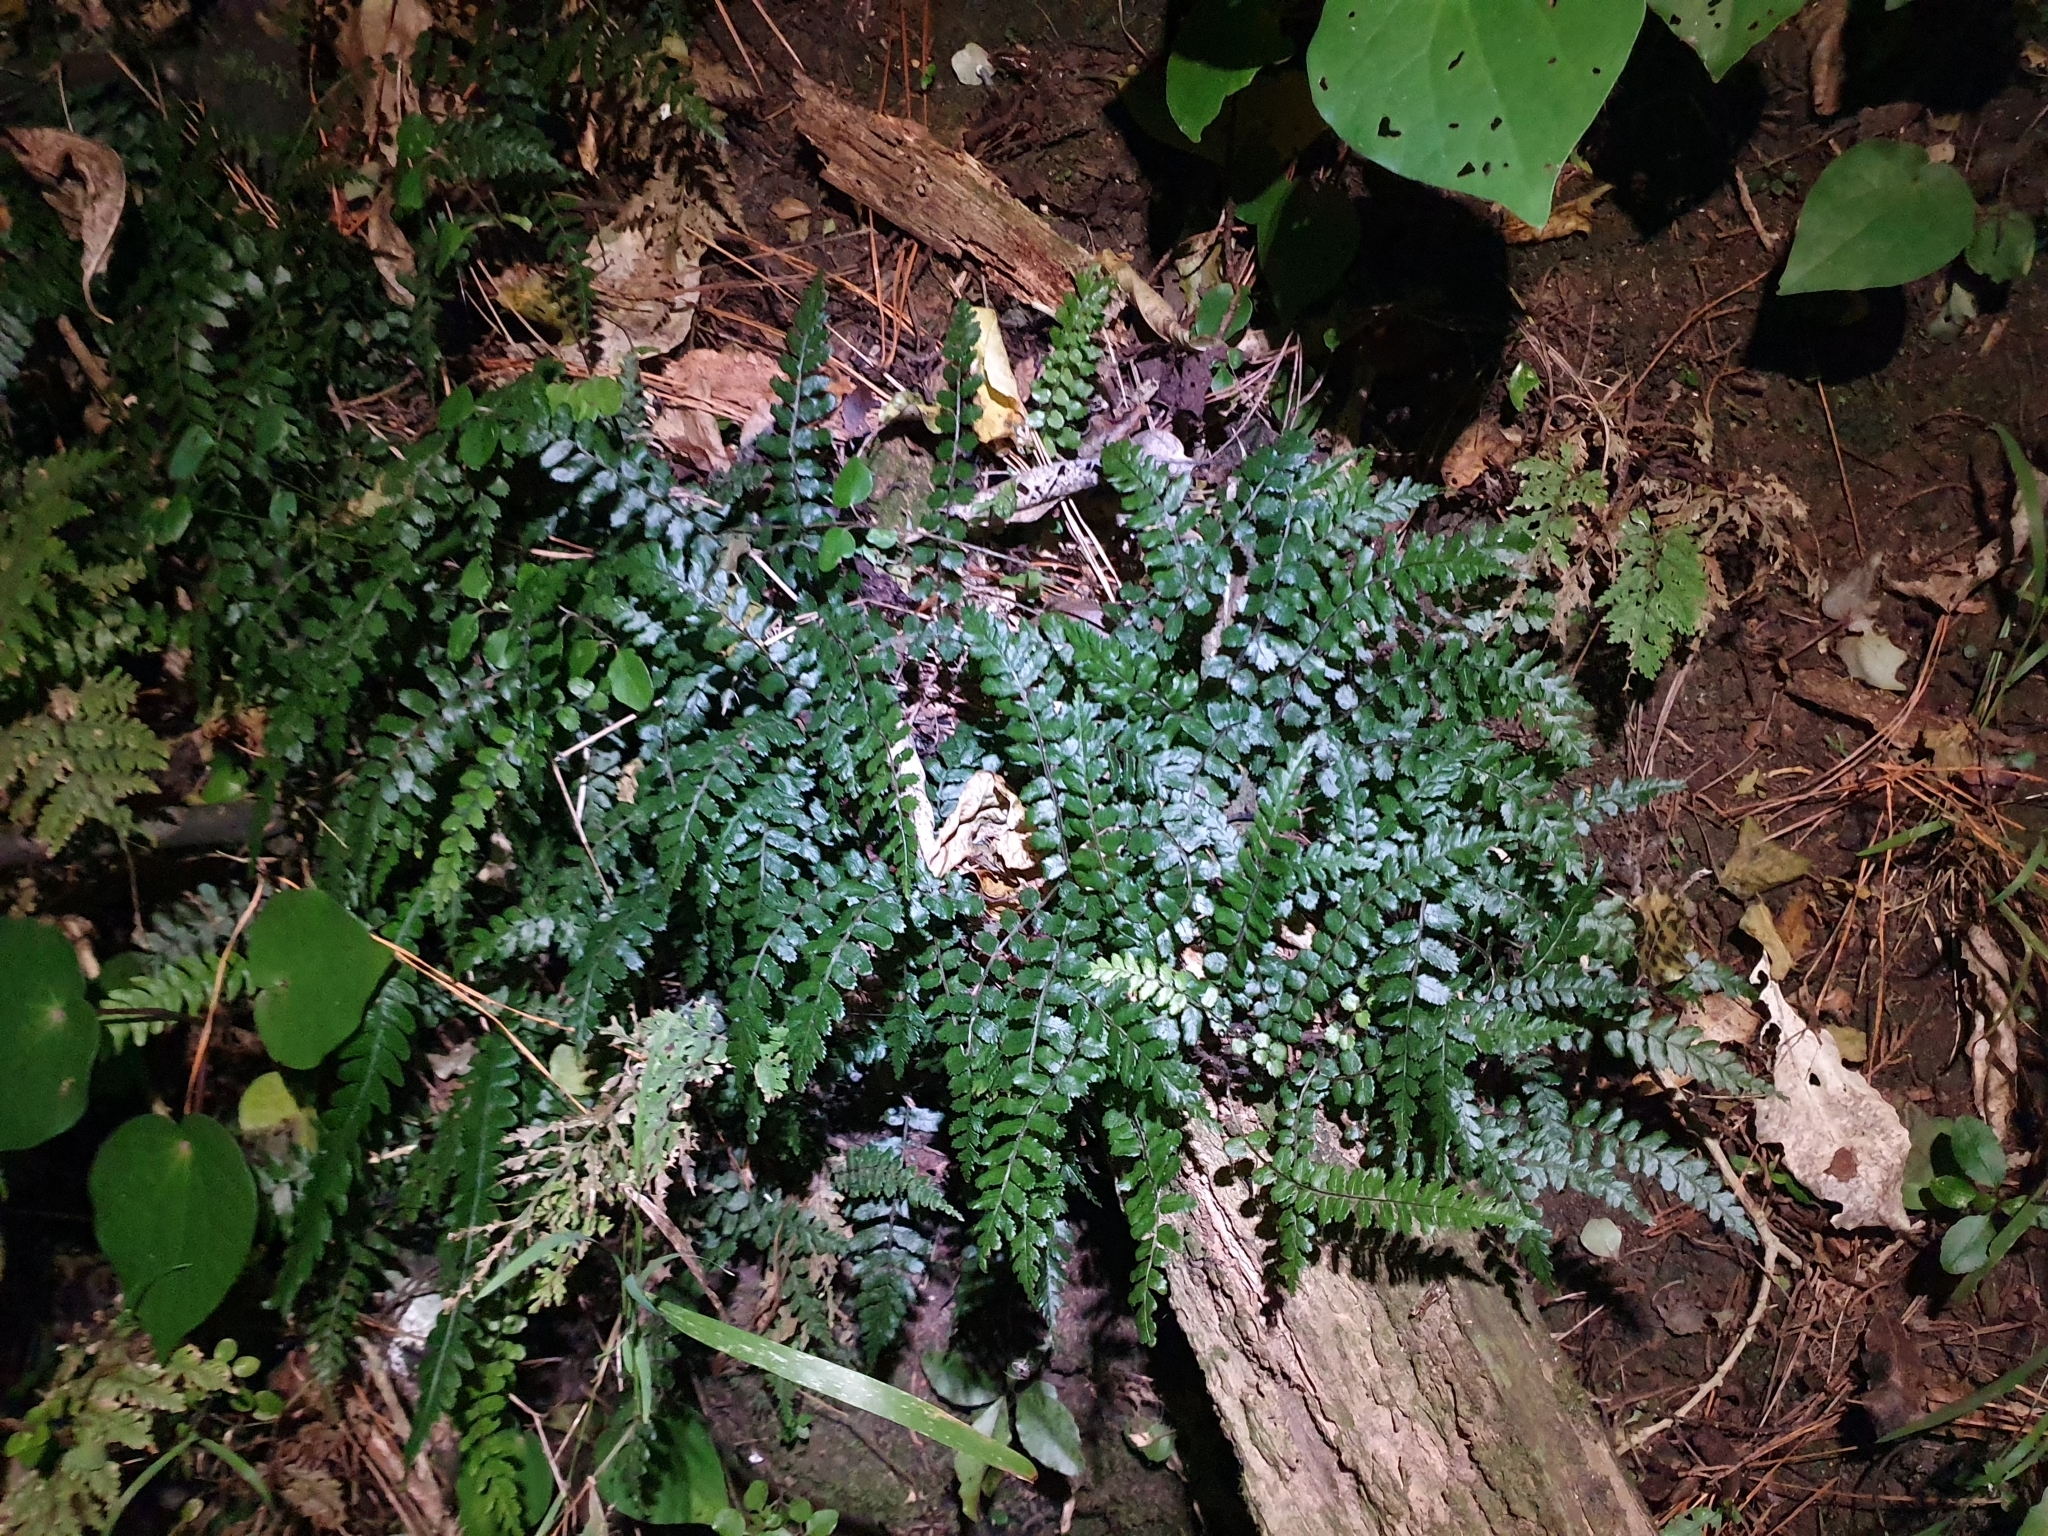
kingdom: Plantae
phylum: Tracheophyta
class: Polypodiopsida
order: Polypodiales
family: Blechnaceae
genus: Icarus
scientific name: Icarus filiformis
